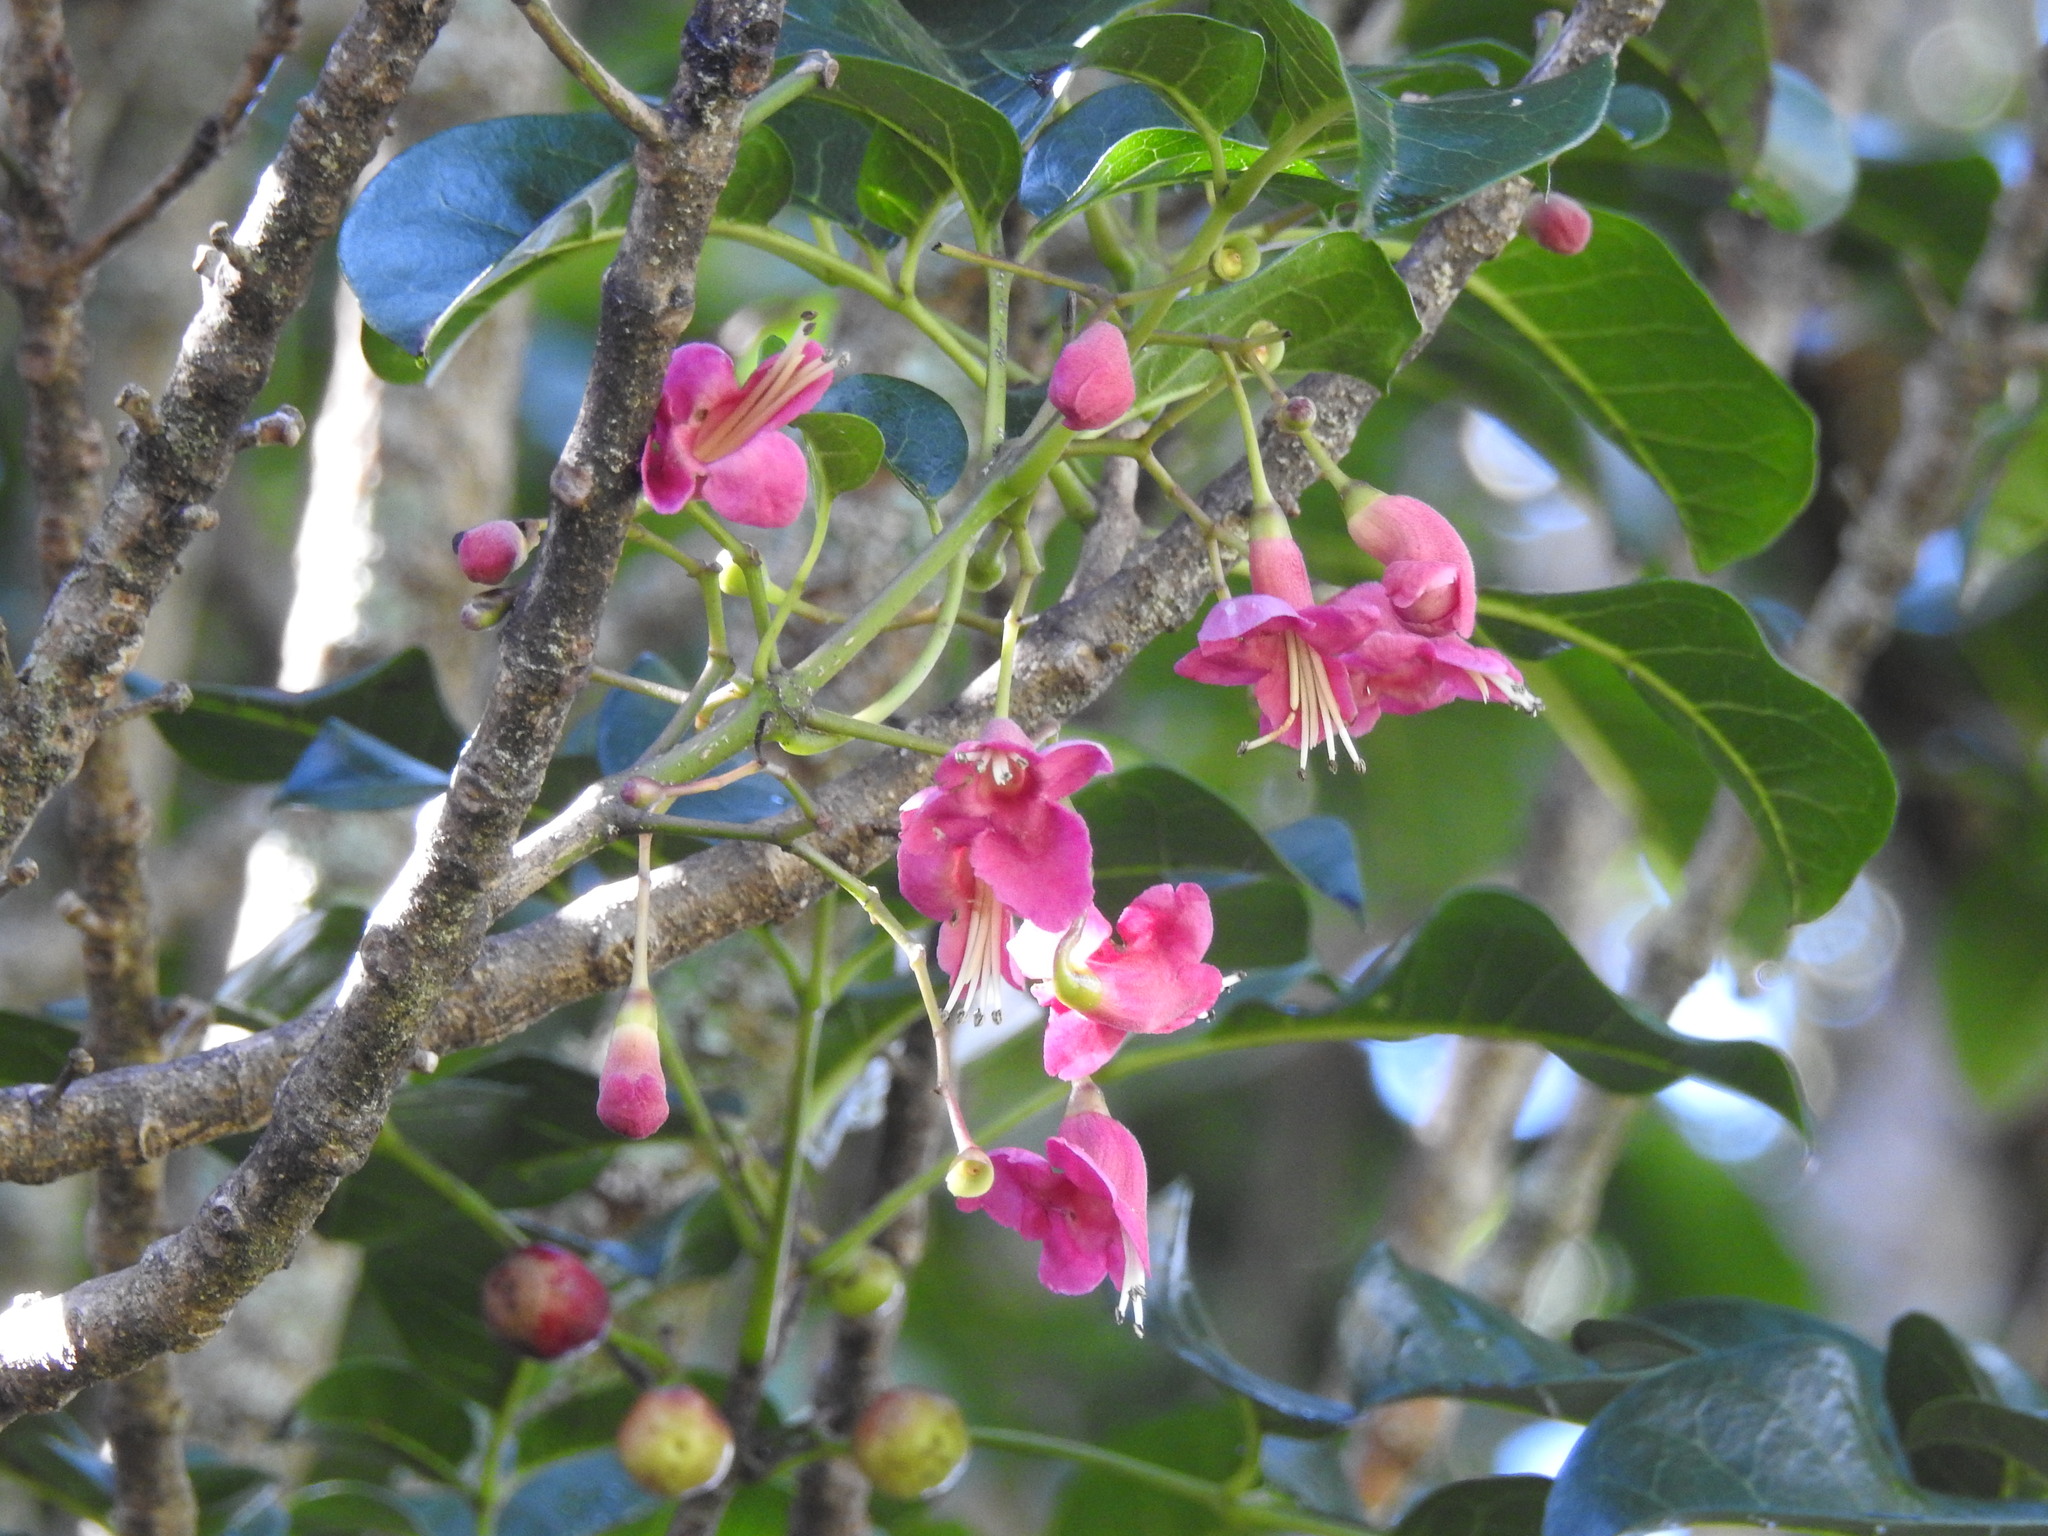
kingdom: Plantae
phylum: Tracheophyta
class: Magnoliopsida
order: Lamiales
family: Lamiaceae
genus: Vitex
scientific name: Vitex lucens
